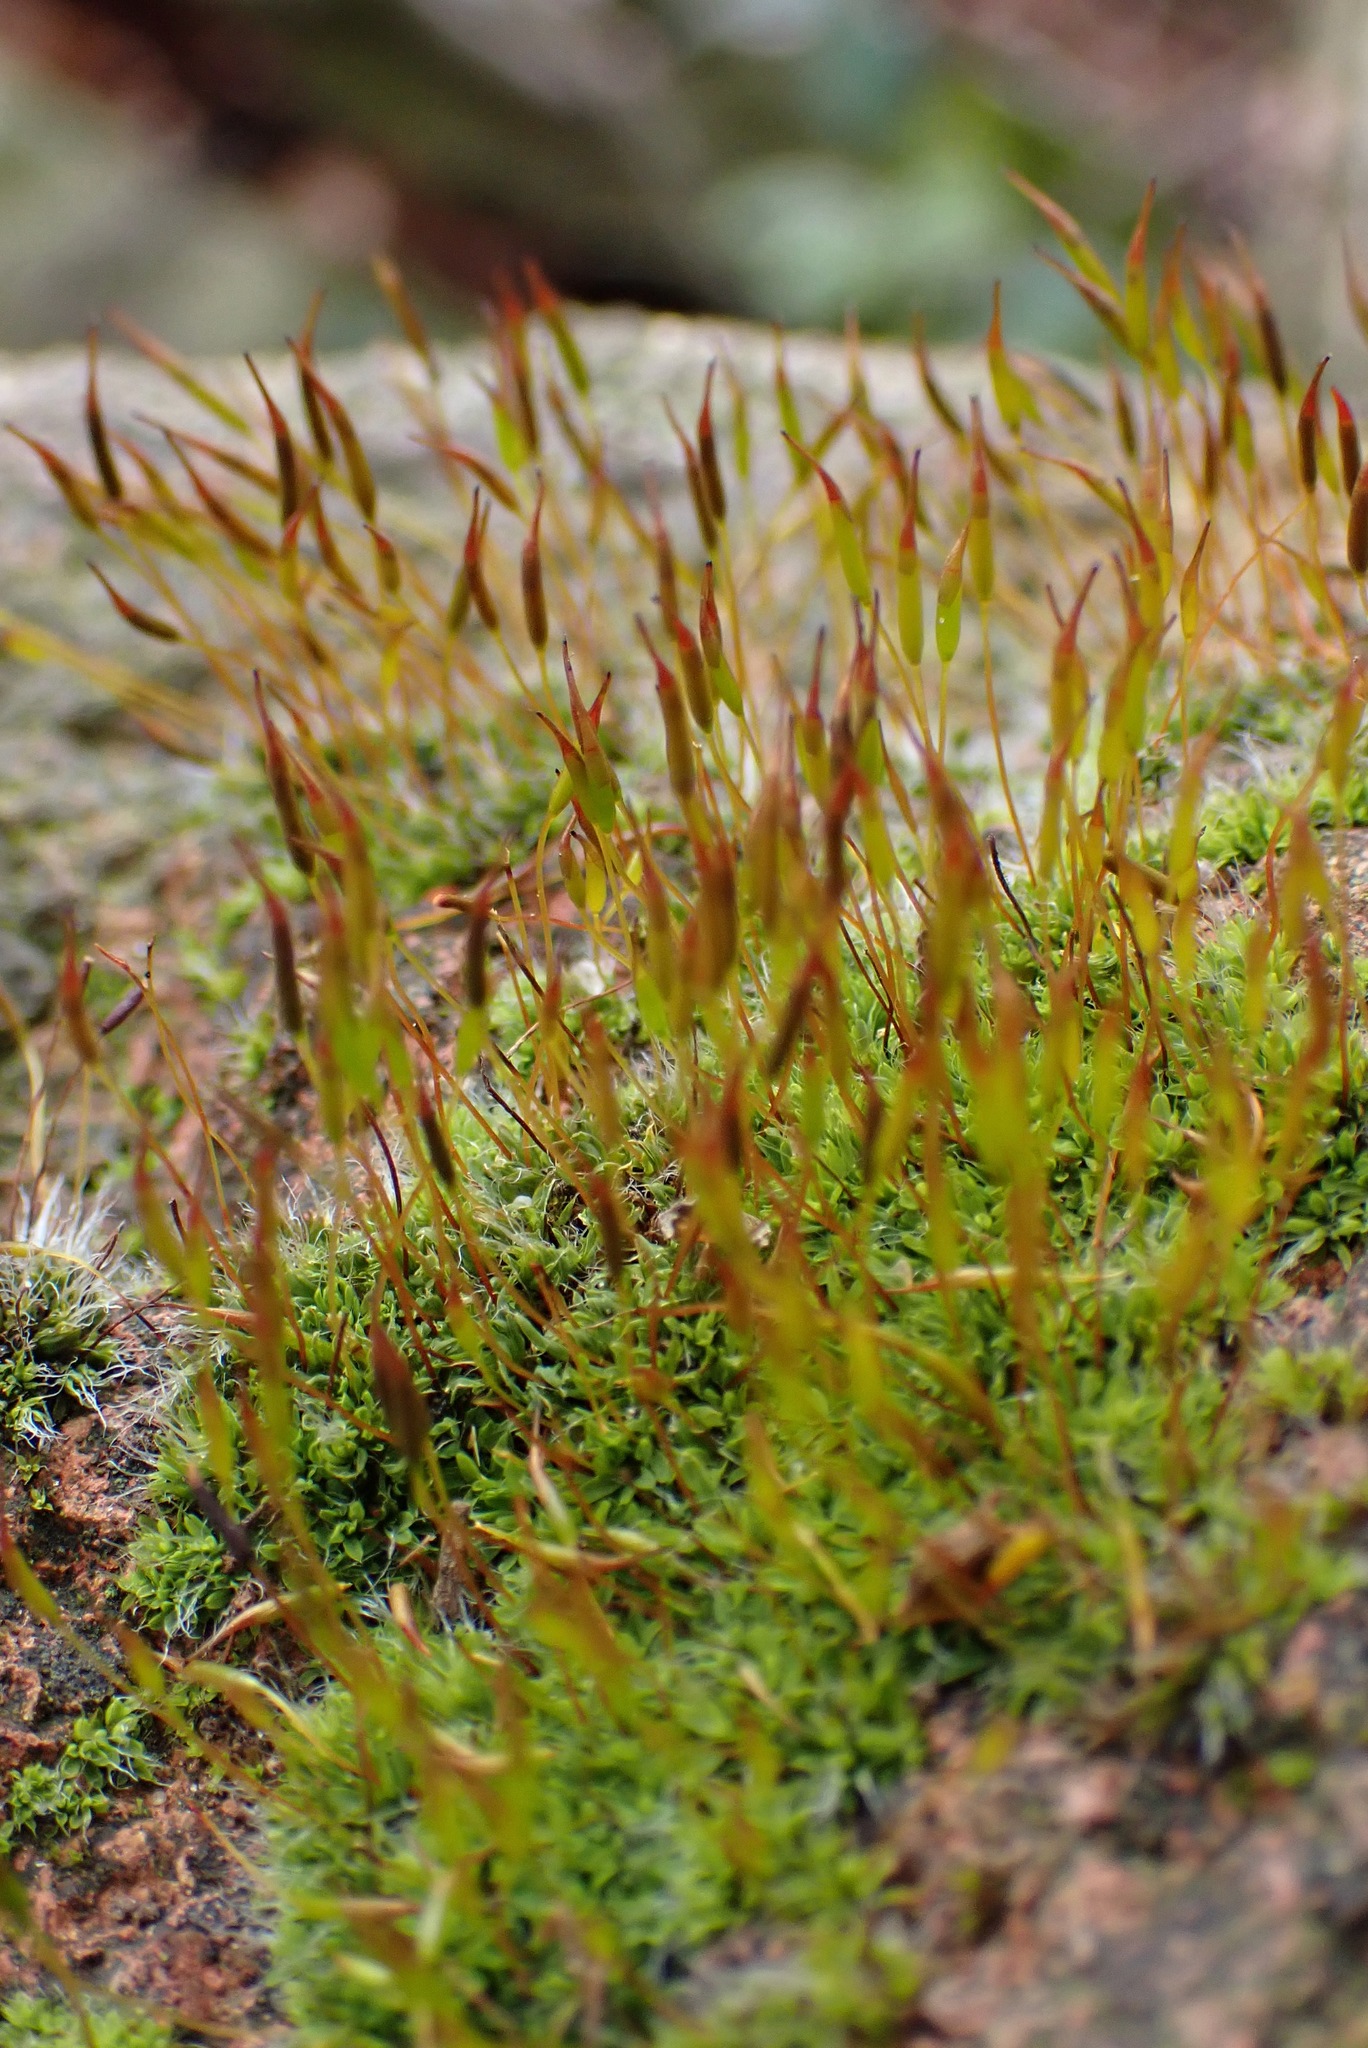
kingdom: Plantae
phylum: Bryophyta
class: Bryopsida
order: Pottiales
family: Pottiaceae
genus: Tortula
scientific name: Tortula muralis
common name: Wall screw-moss
